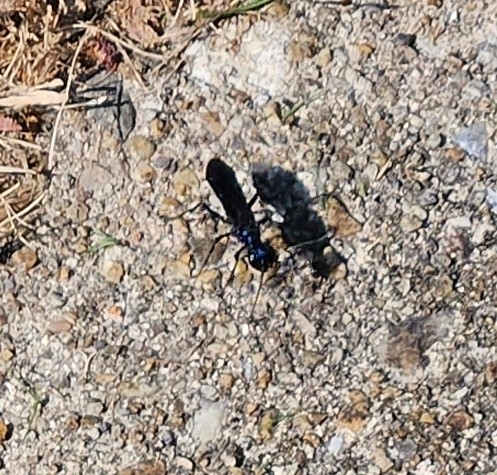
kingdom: Animalia
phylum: Arthropoda
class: Insecta
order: Hymenoptera
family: Sphecidae
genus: Chlorion
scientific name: Chlorion aerarium
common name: Steel-blue cricket hunter
